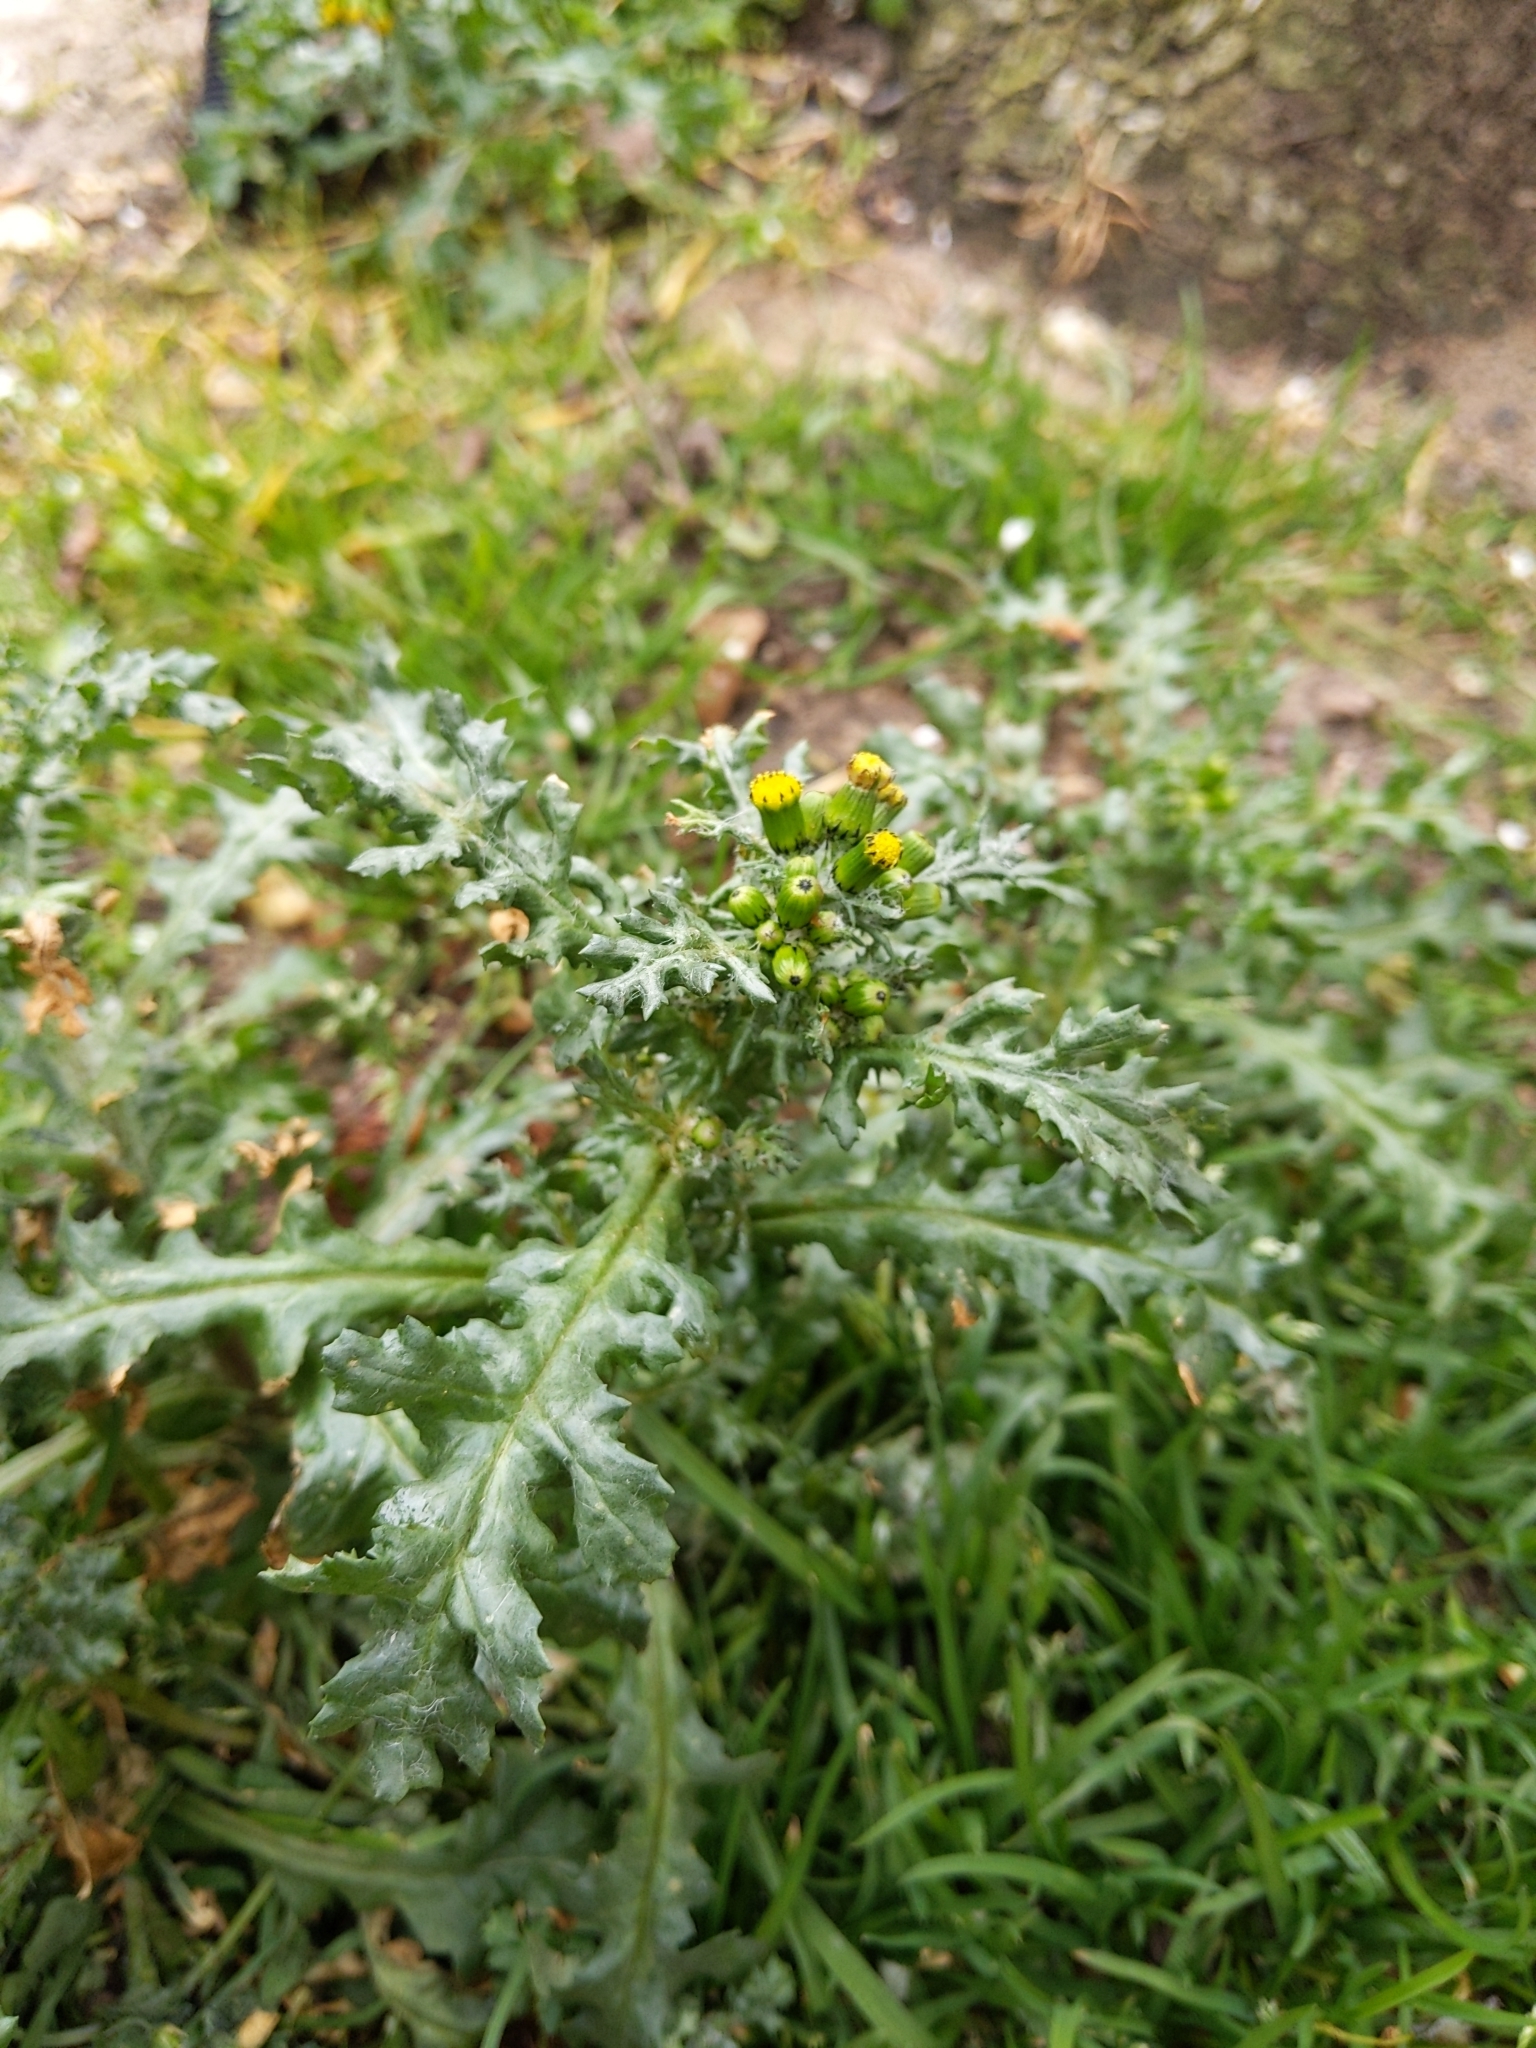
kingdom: Plantae
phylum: Tracheophyta
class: Magnoliopsida
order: Asterales
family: Asteraceae
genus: Senecio
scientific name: Senecio vulgaris
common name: Old-man-in-the-spring
